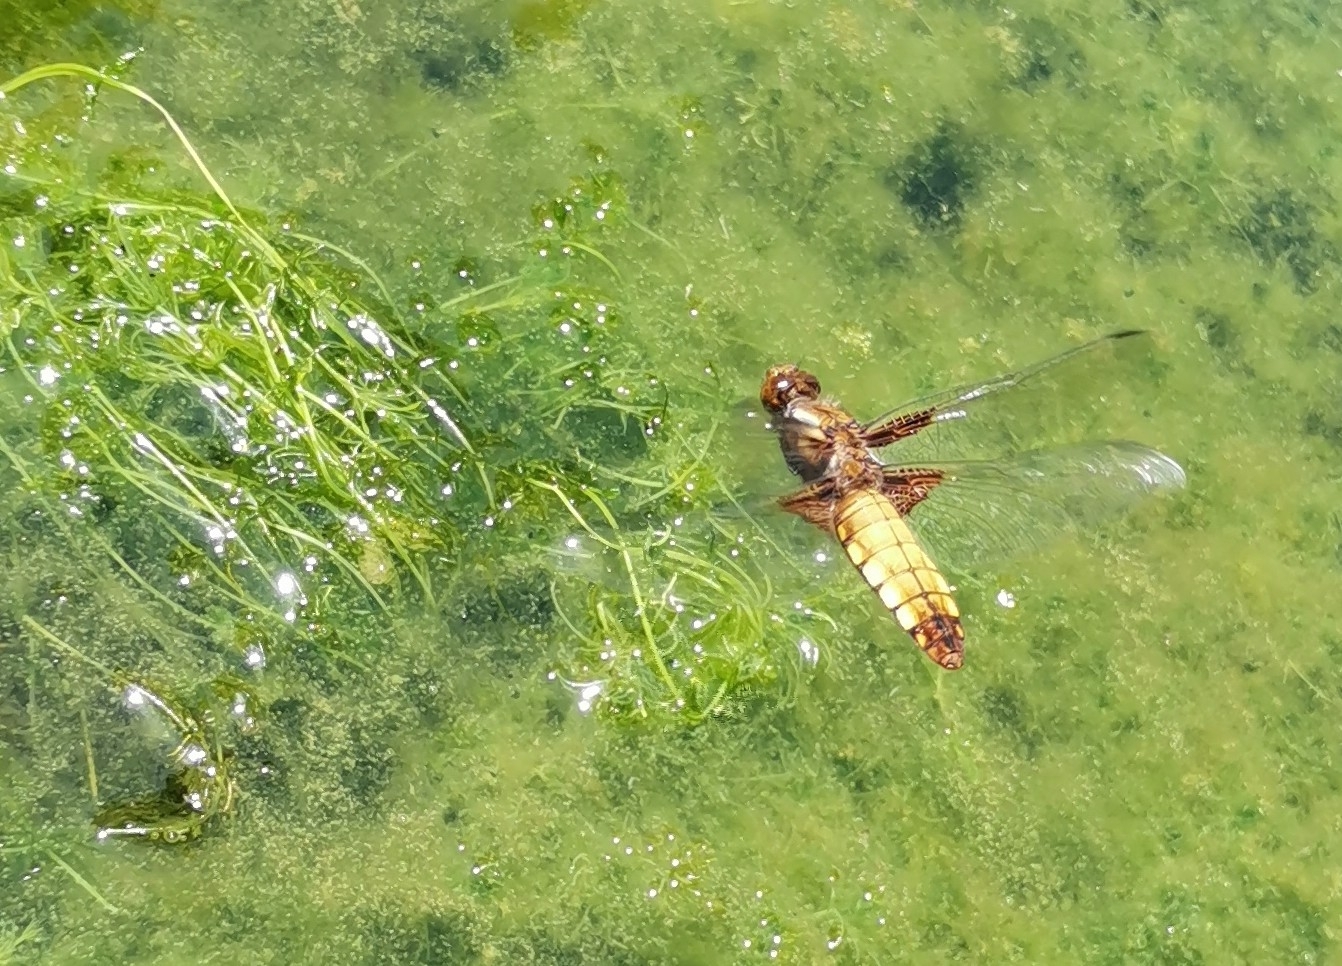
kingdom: Animalia
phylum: Arthropoda
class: Insecta
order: Odonata
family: Libellulidae
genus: Libellula
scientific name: Libellula depressa
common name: Broad-bodied chaser
